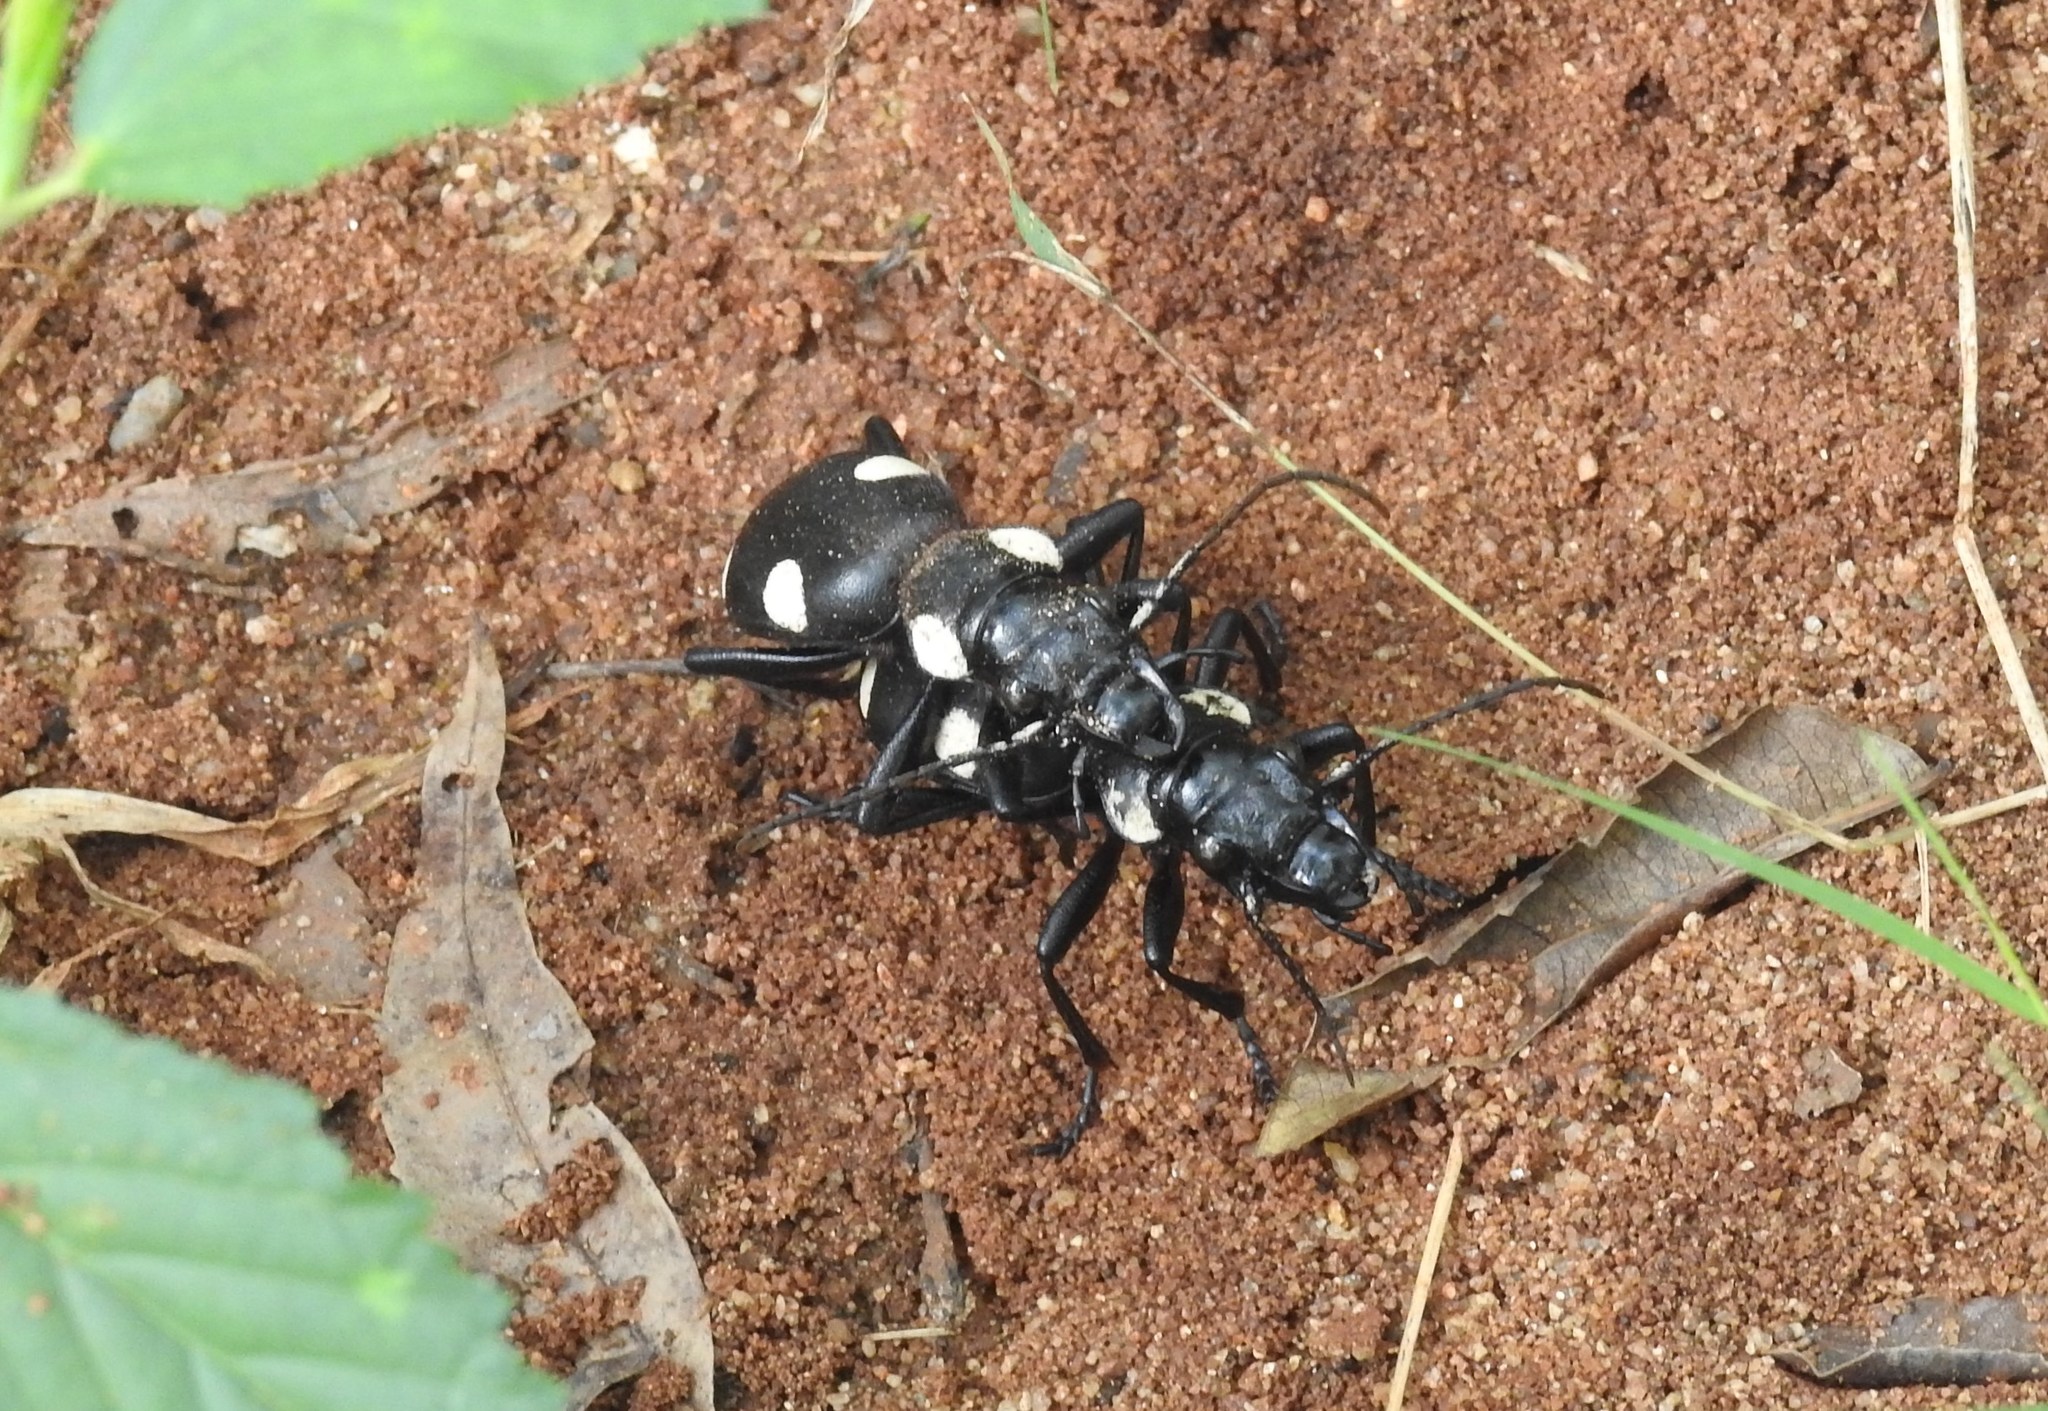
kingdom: Animalia
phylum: Arthropoda
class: Insecta
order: Coleoptera
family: Carabidae
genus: Anthia
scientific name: Anthia sexguttata
